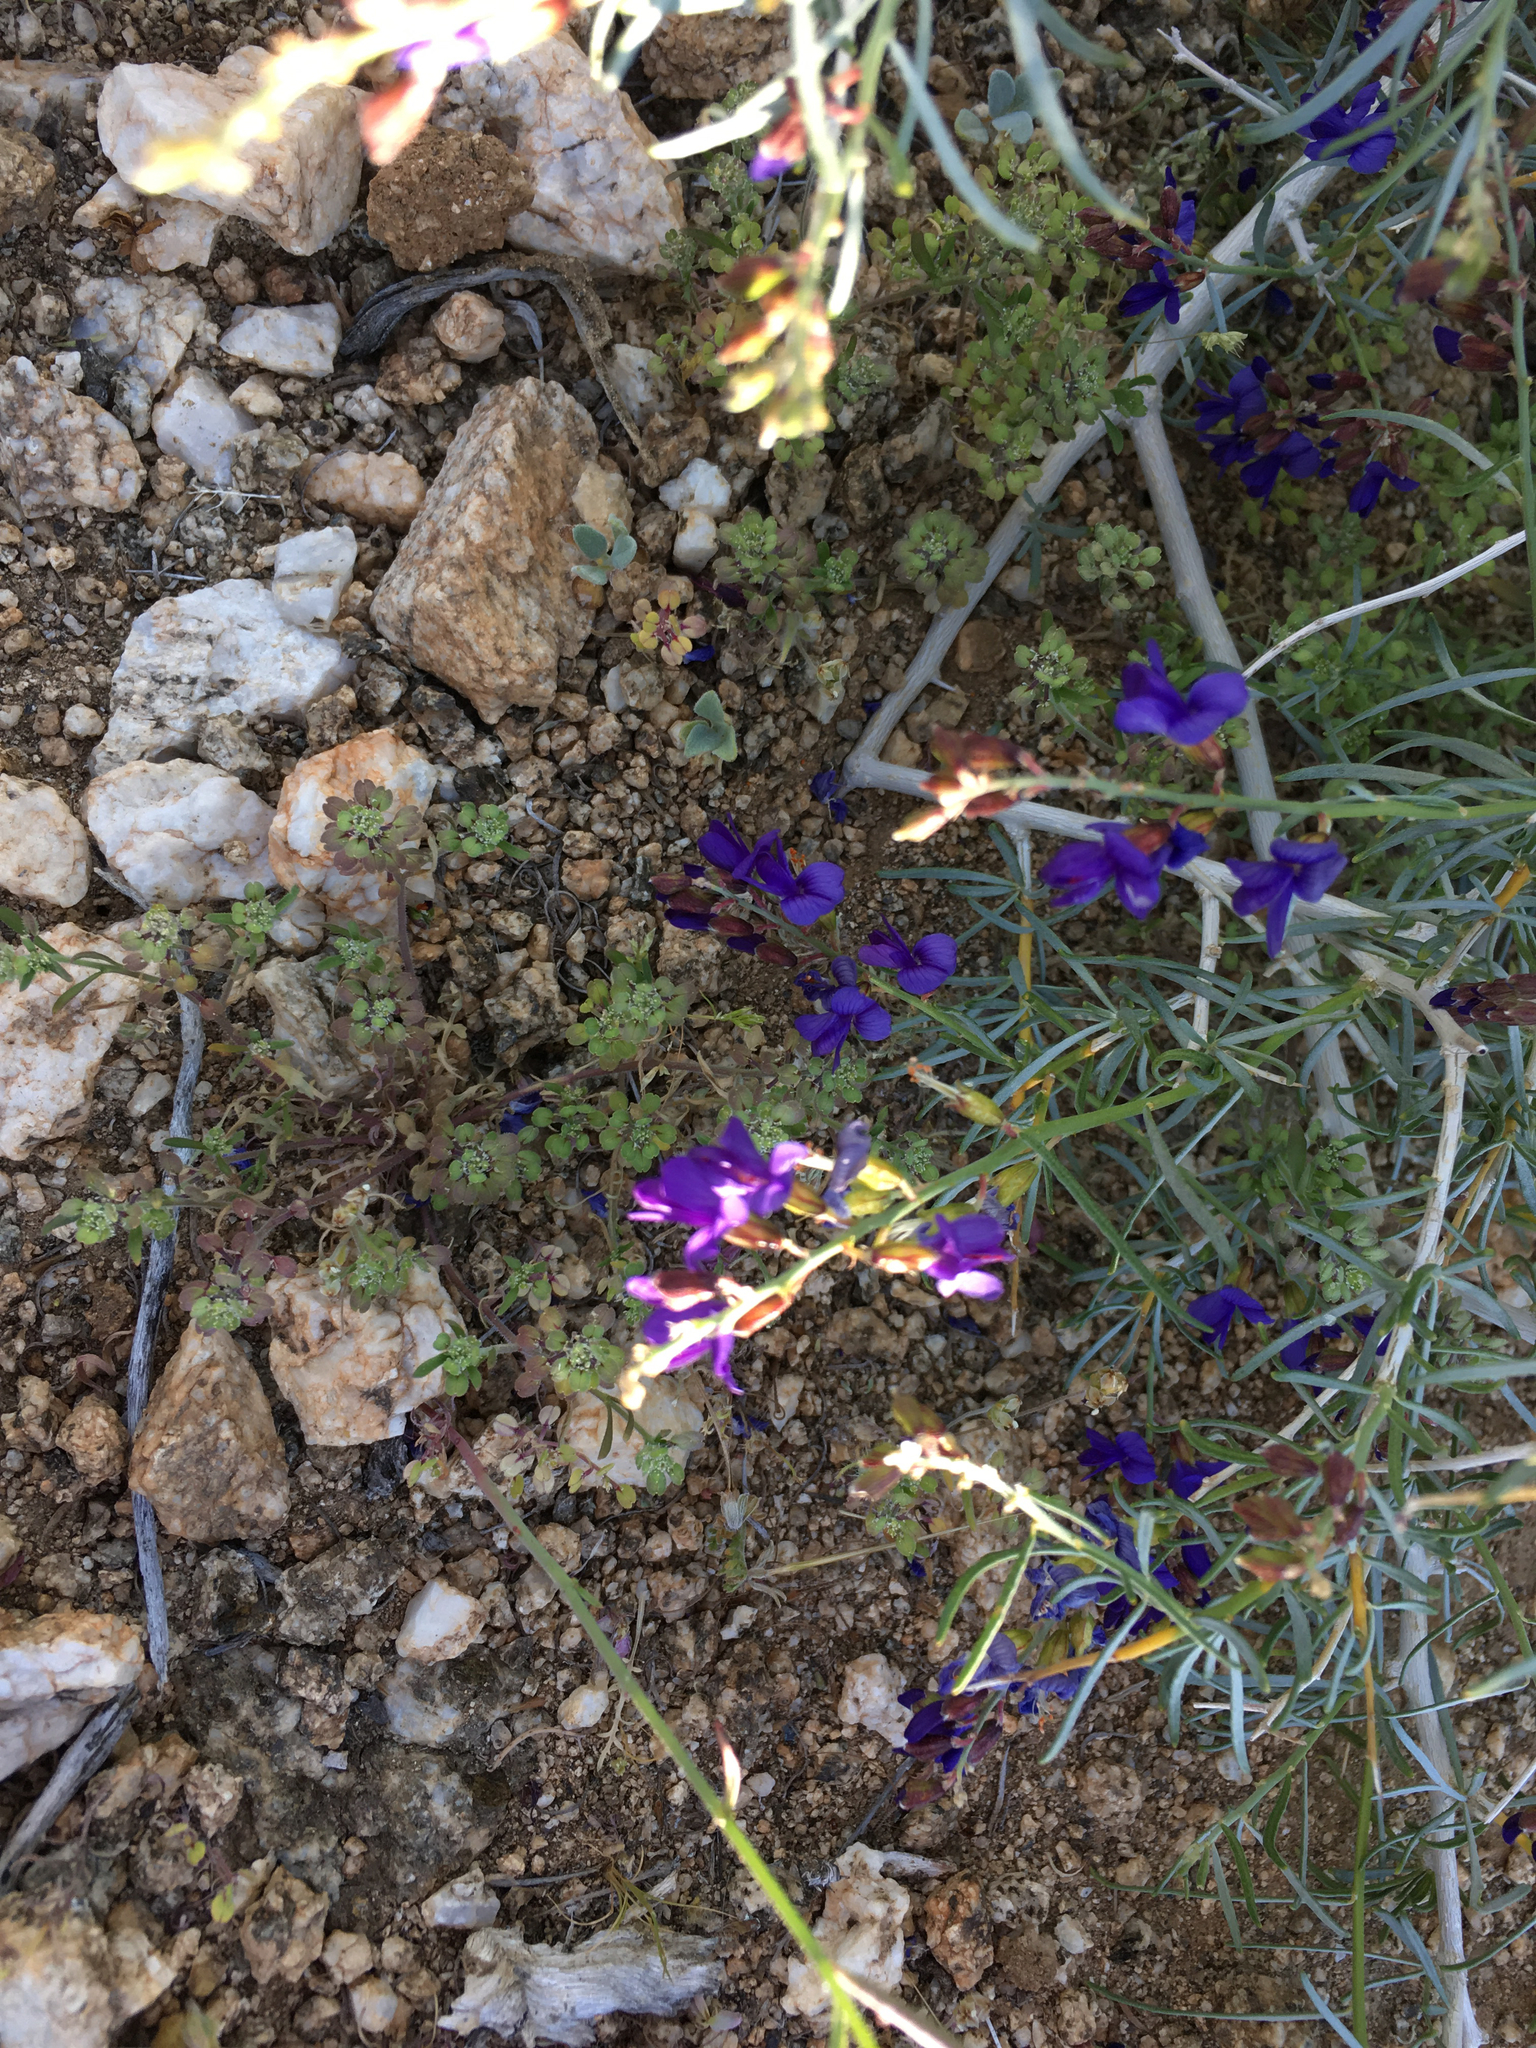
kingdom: Plantae
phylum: Tracheophyta
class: Magnoliopsida
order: Fabales
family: Fabaceae
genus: Psorothamnus
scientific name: Psorothamnus schottii
